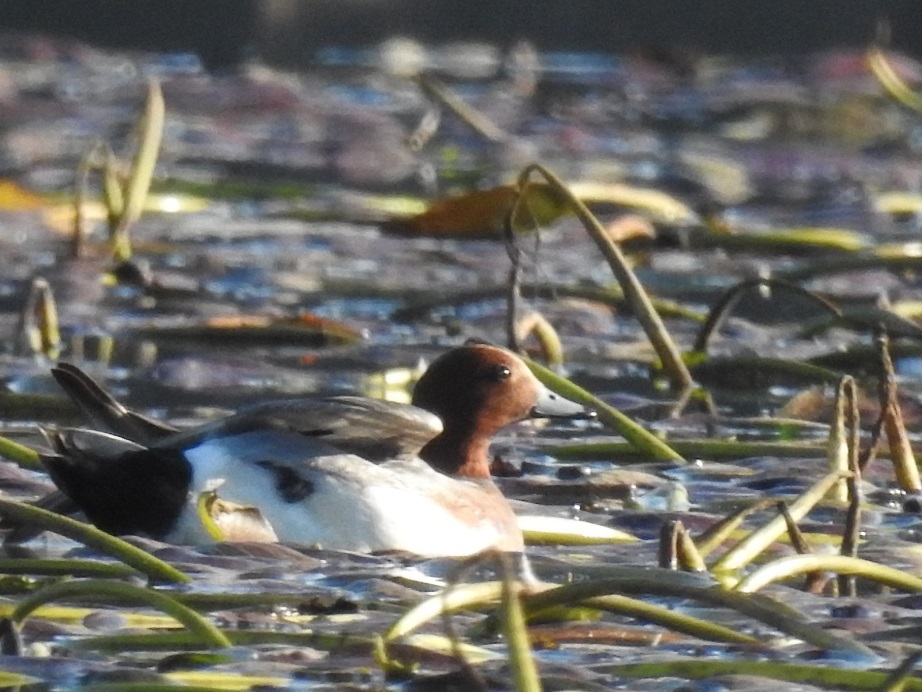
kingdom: Animalia
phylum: Chordata
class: Aves
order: Anseriformes
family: Anatidae
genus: Mareca
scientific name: Mareca penelope
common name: Eurasian wigeon
